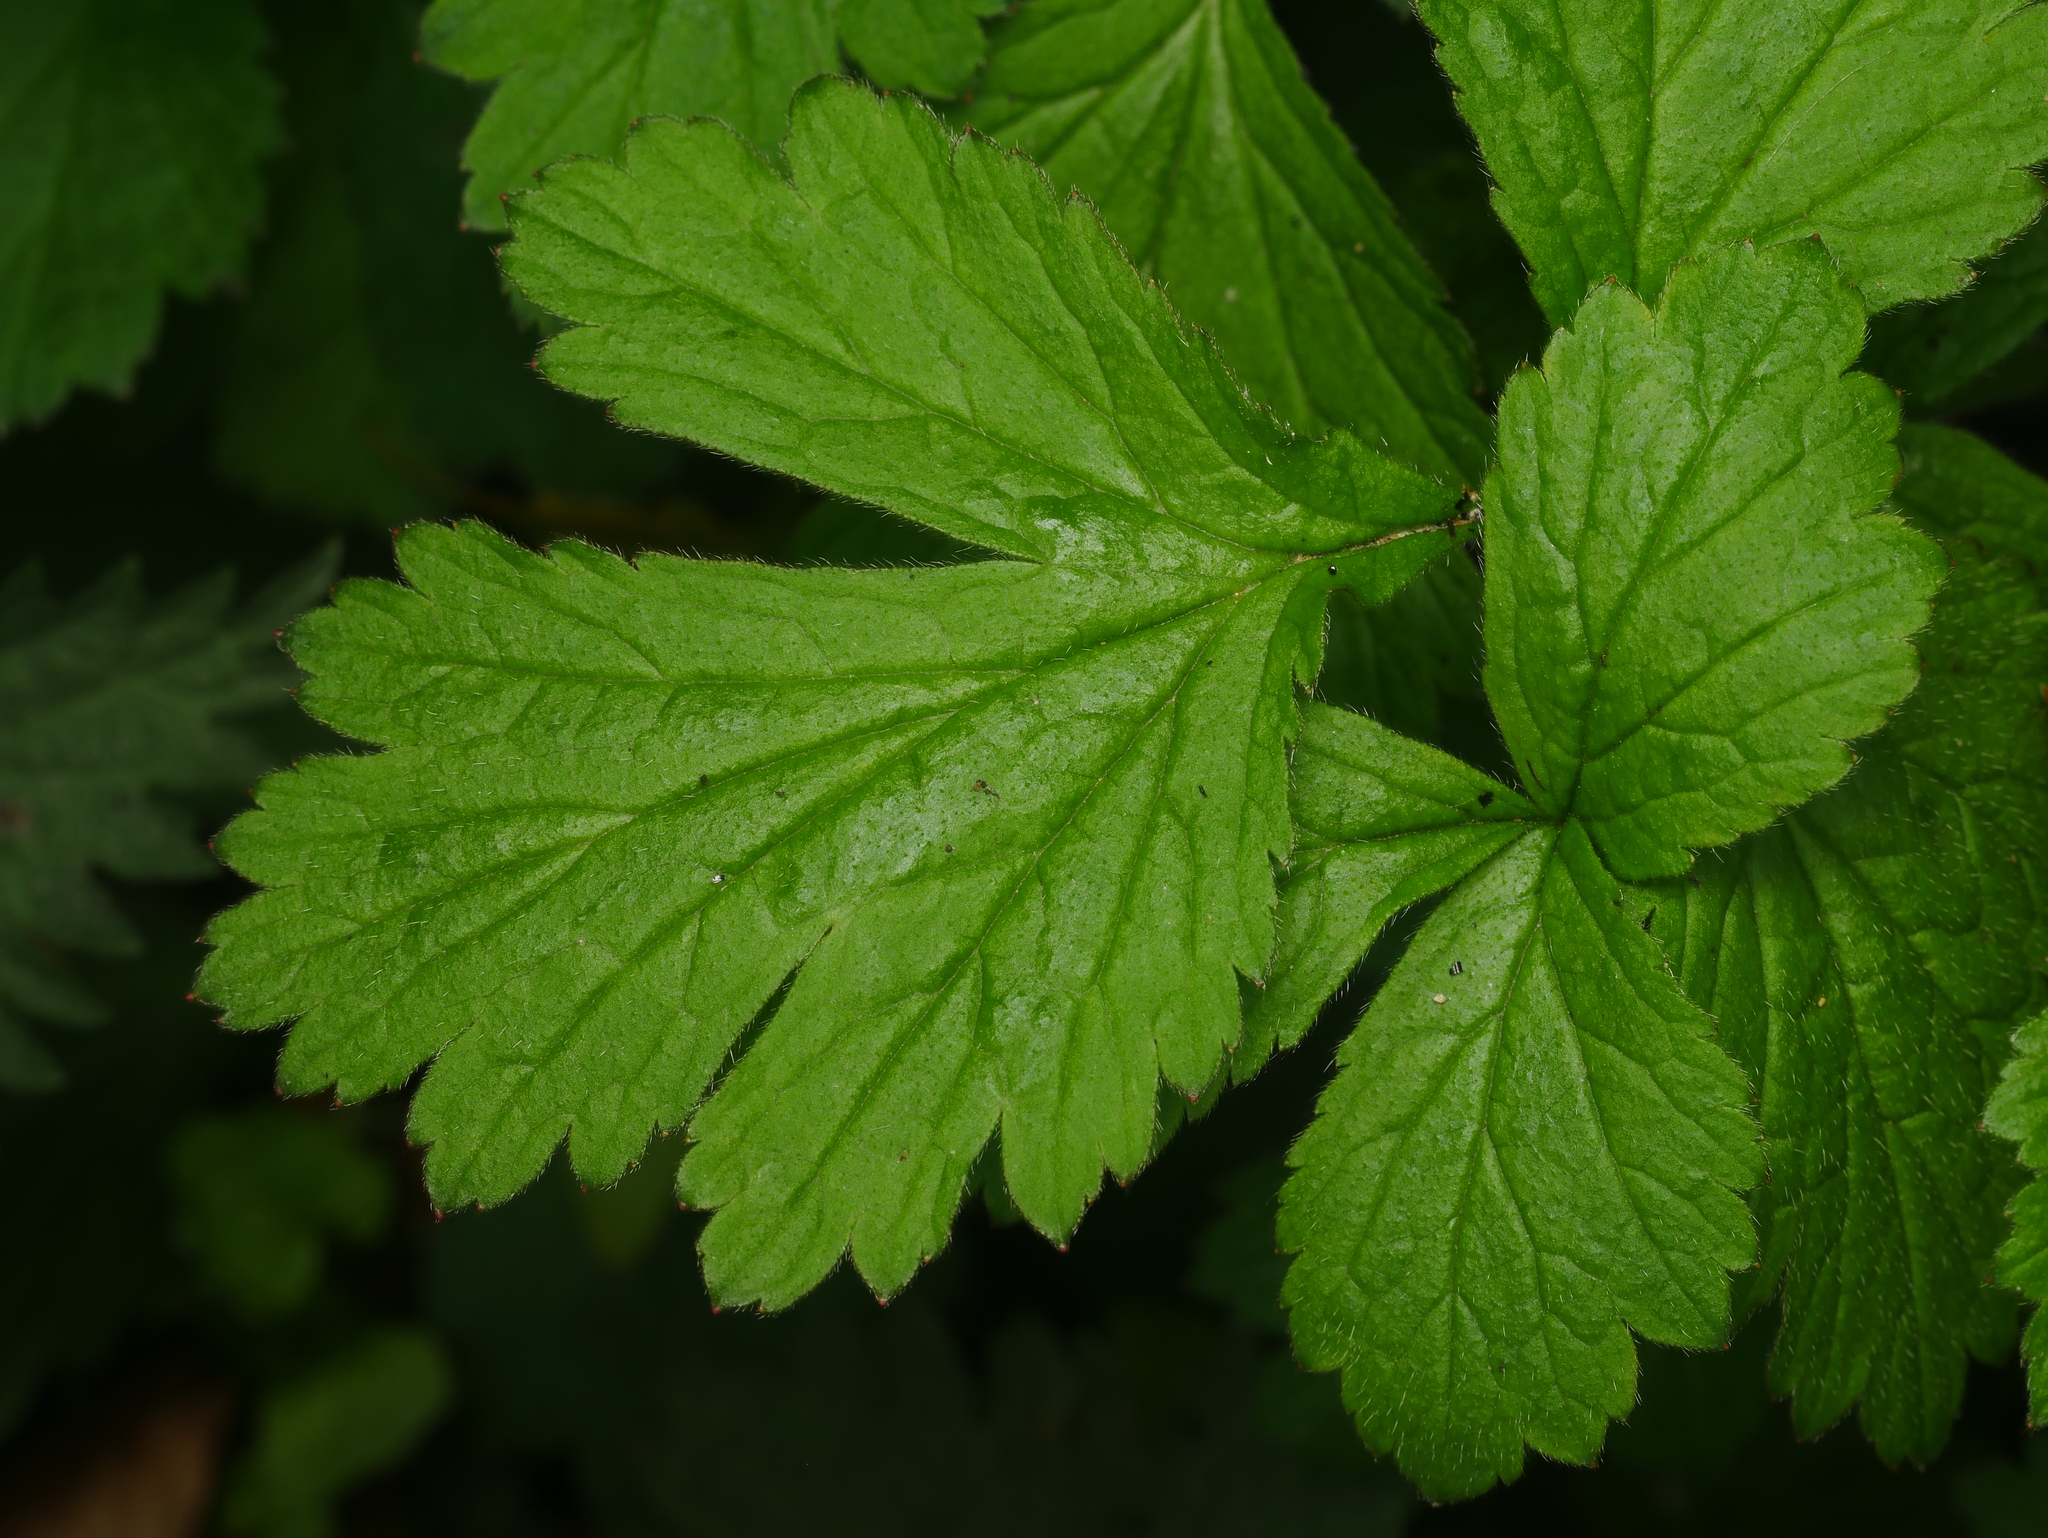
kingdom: Plantae
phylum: Tracheophyta
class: Magnoliopsida
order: Rosales
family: Rosaceae
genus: Geum
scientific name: Geum urbanum
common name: Wood avens
